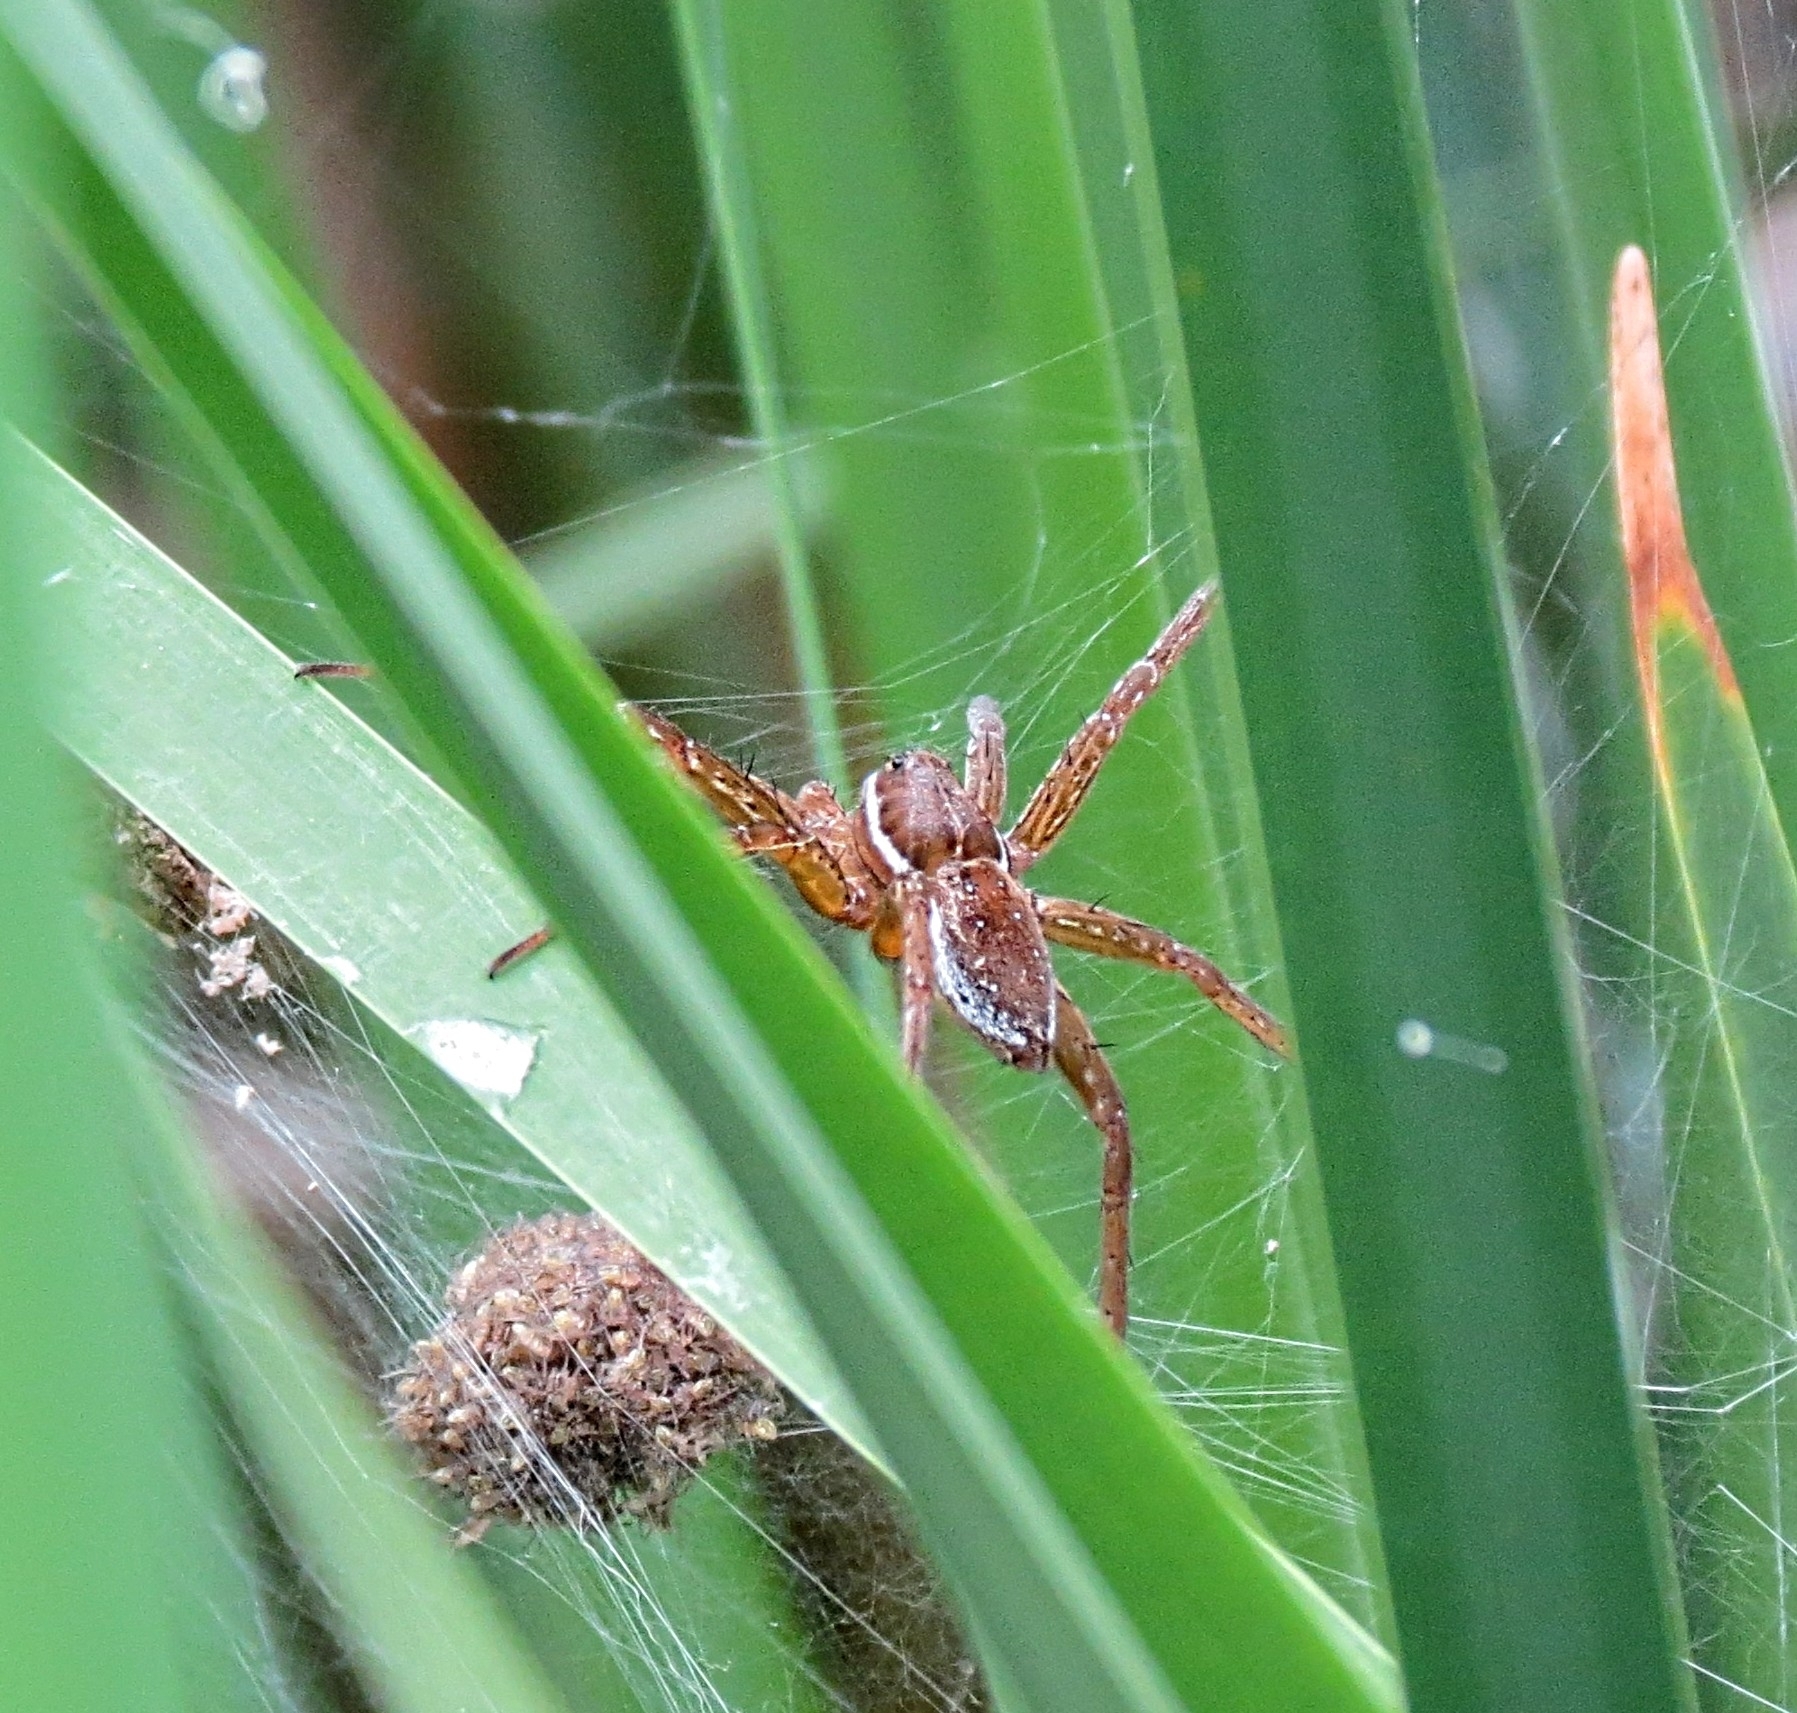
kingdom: Animalia
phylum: Arthropoda
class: Arachnida
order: Araneae
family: Pisauridae
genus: Dolomedes
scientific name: Dolomedes triton
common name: Six-spotted fishing spider
